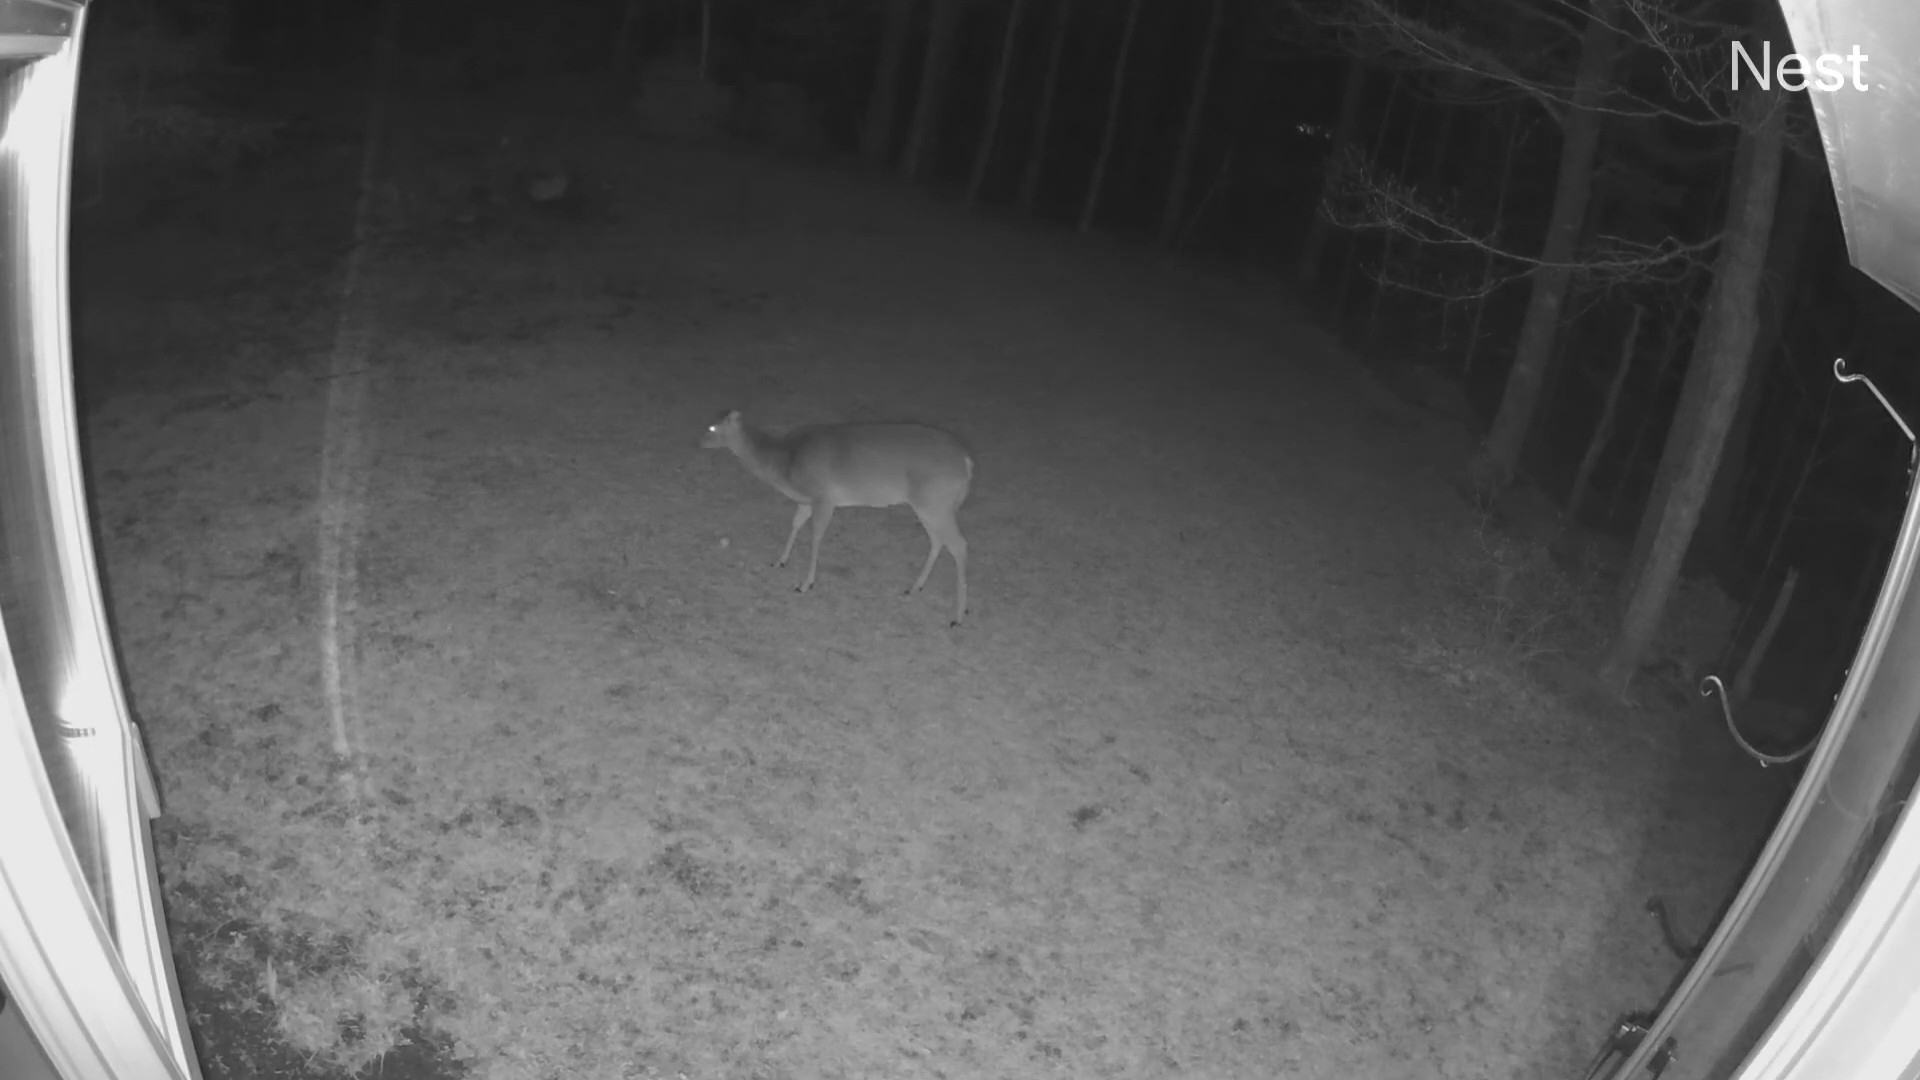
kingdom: Animalia
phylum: Chordata
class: Mammalia
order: Artiodactyla
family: Cervidae
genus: Odocoileus
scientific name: Odocoileus virginianus
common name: White-tailed deer
